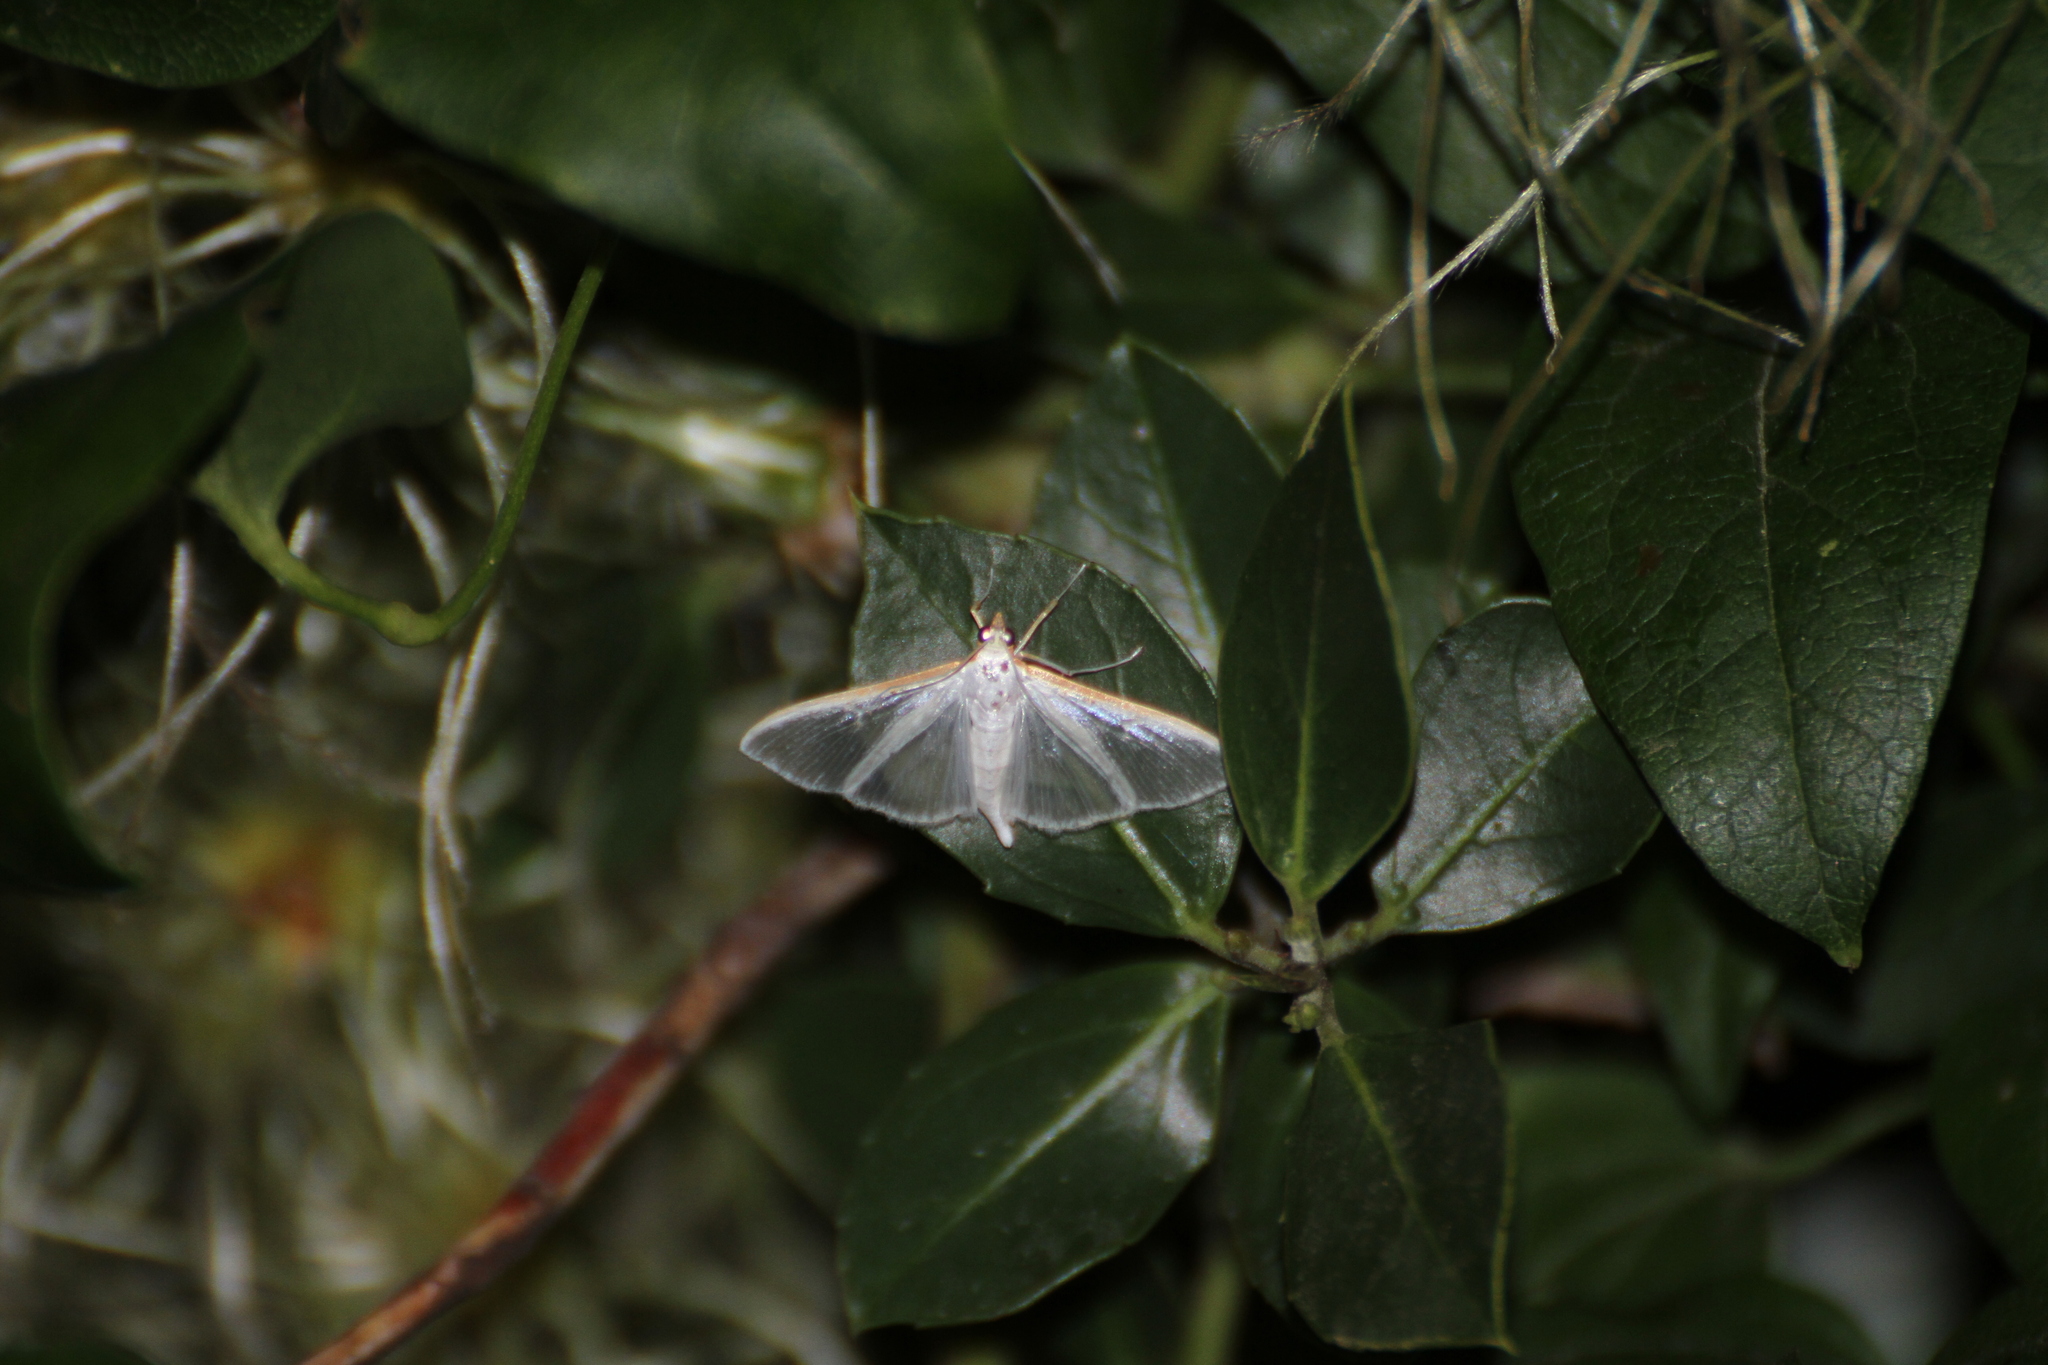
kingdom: Animalia
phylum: Arthropoda
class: Insecta
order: Lepidoptera
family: Crambidae
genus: Palpita
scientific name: Palpita vitrealis
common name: Olive-tree pearl
